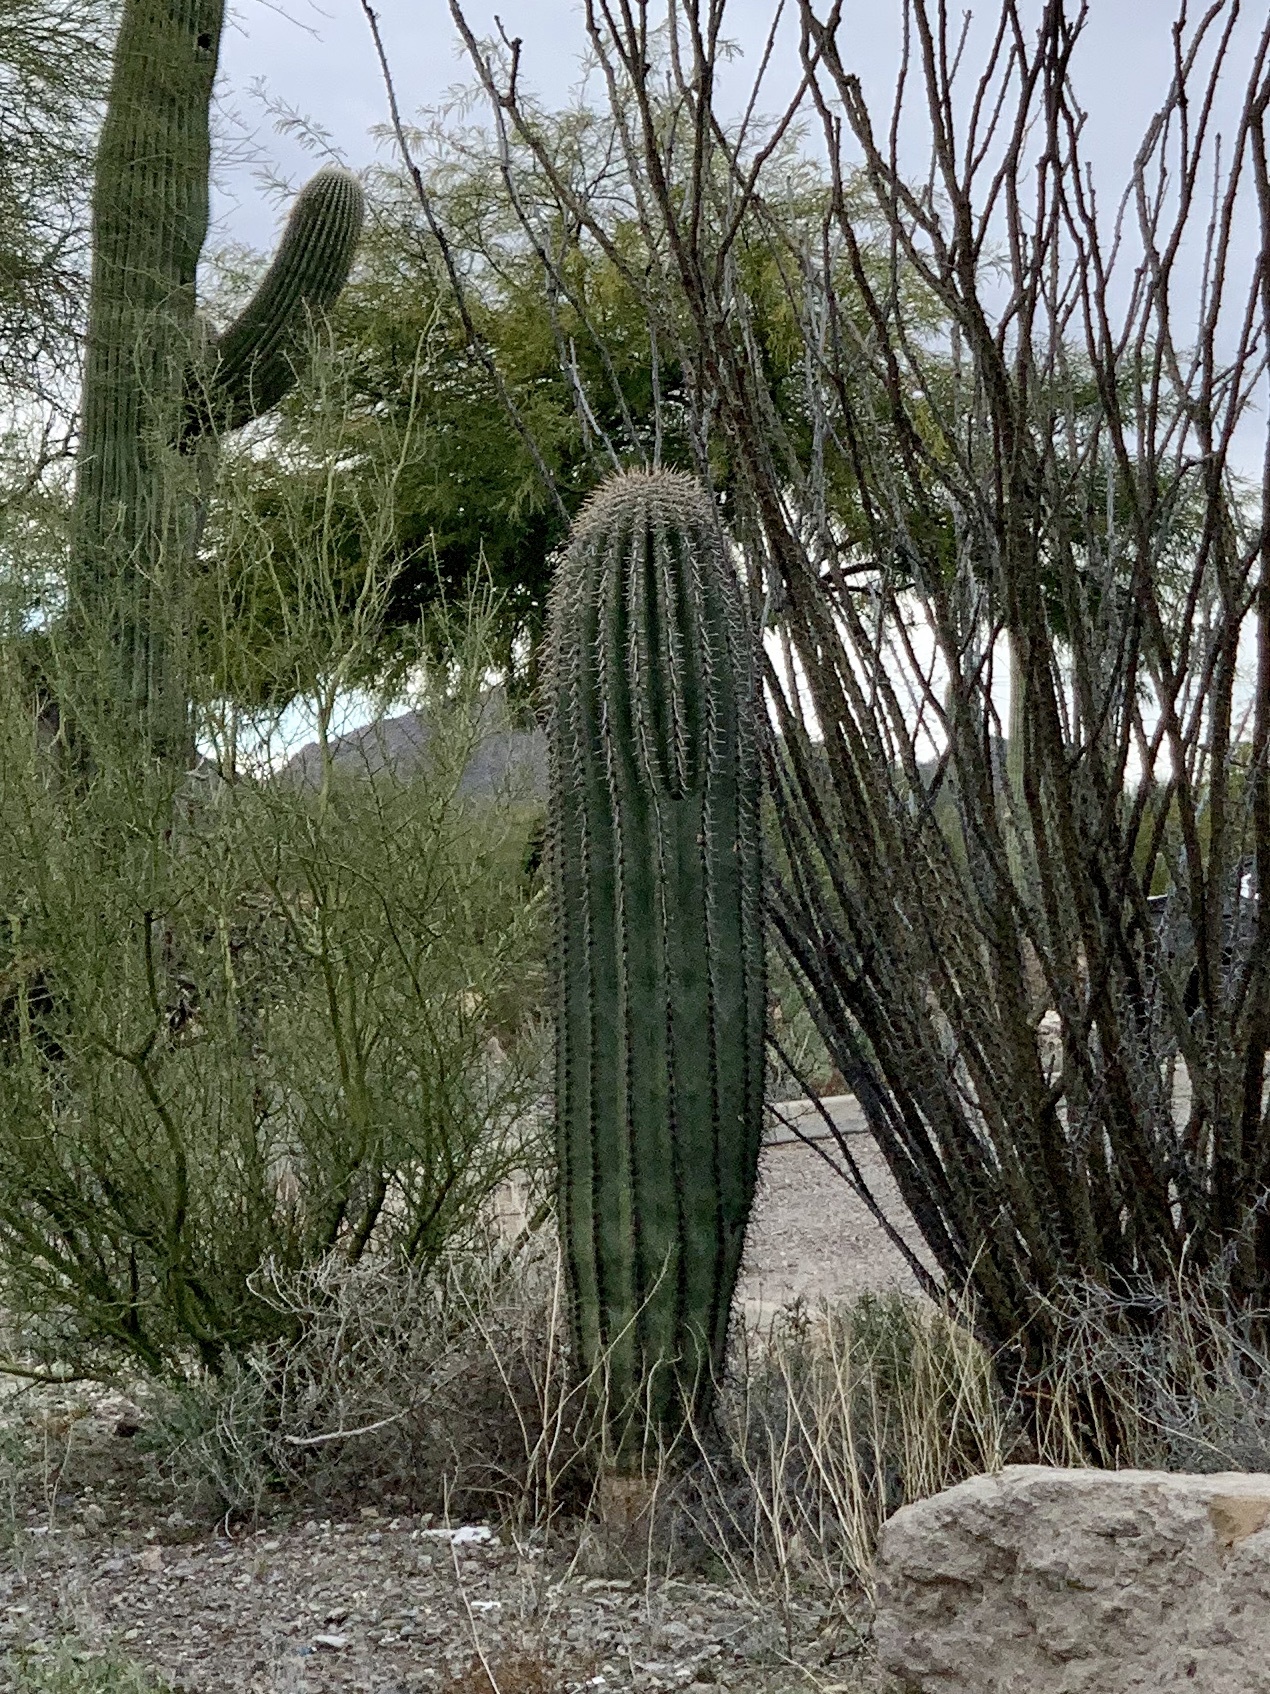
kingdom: Plantae
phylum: Tracheophyta
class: Magnoliopsida
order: Caryophyllales
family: Cactaceae
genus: Carnegiea
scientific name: Carnegiea gigantea
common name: Saguaro
